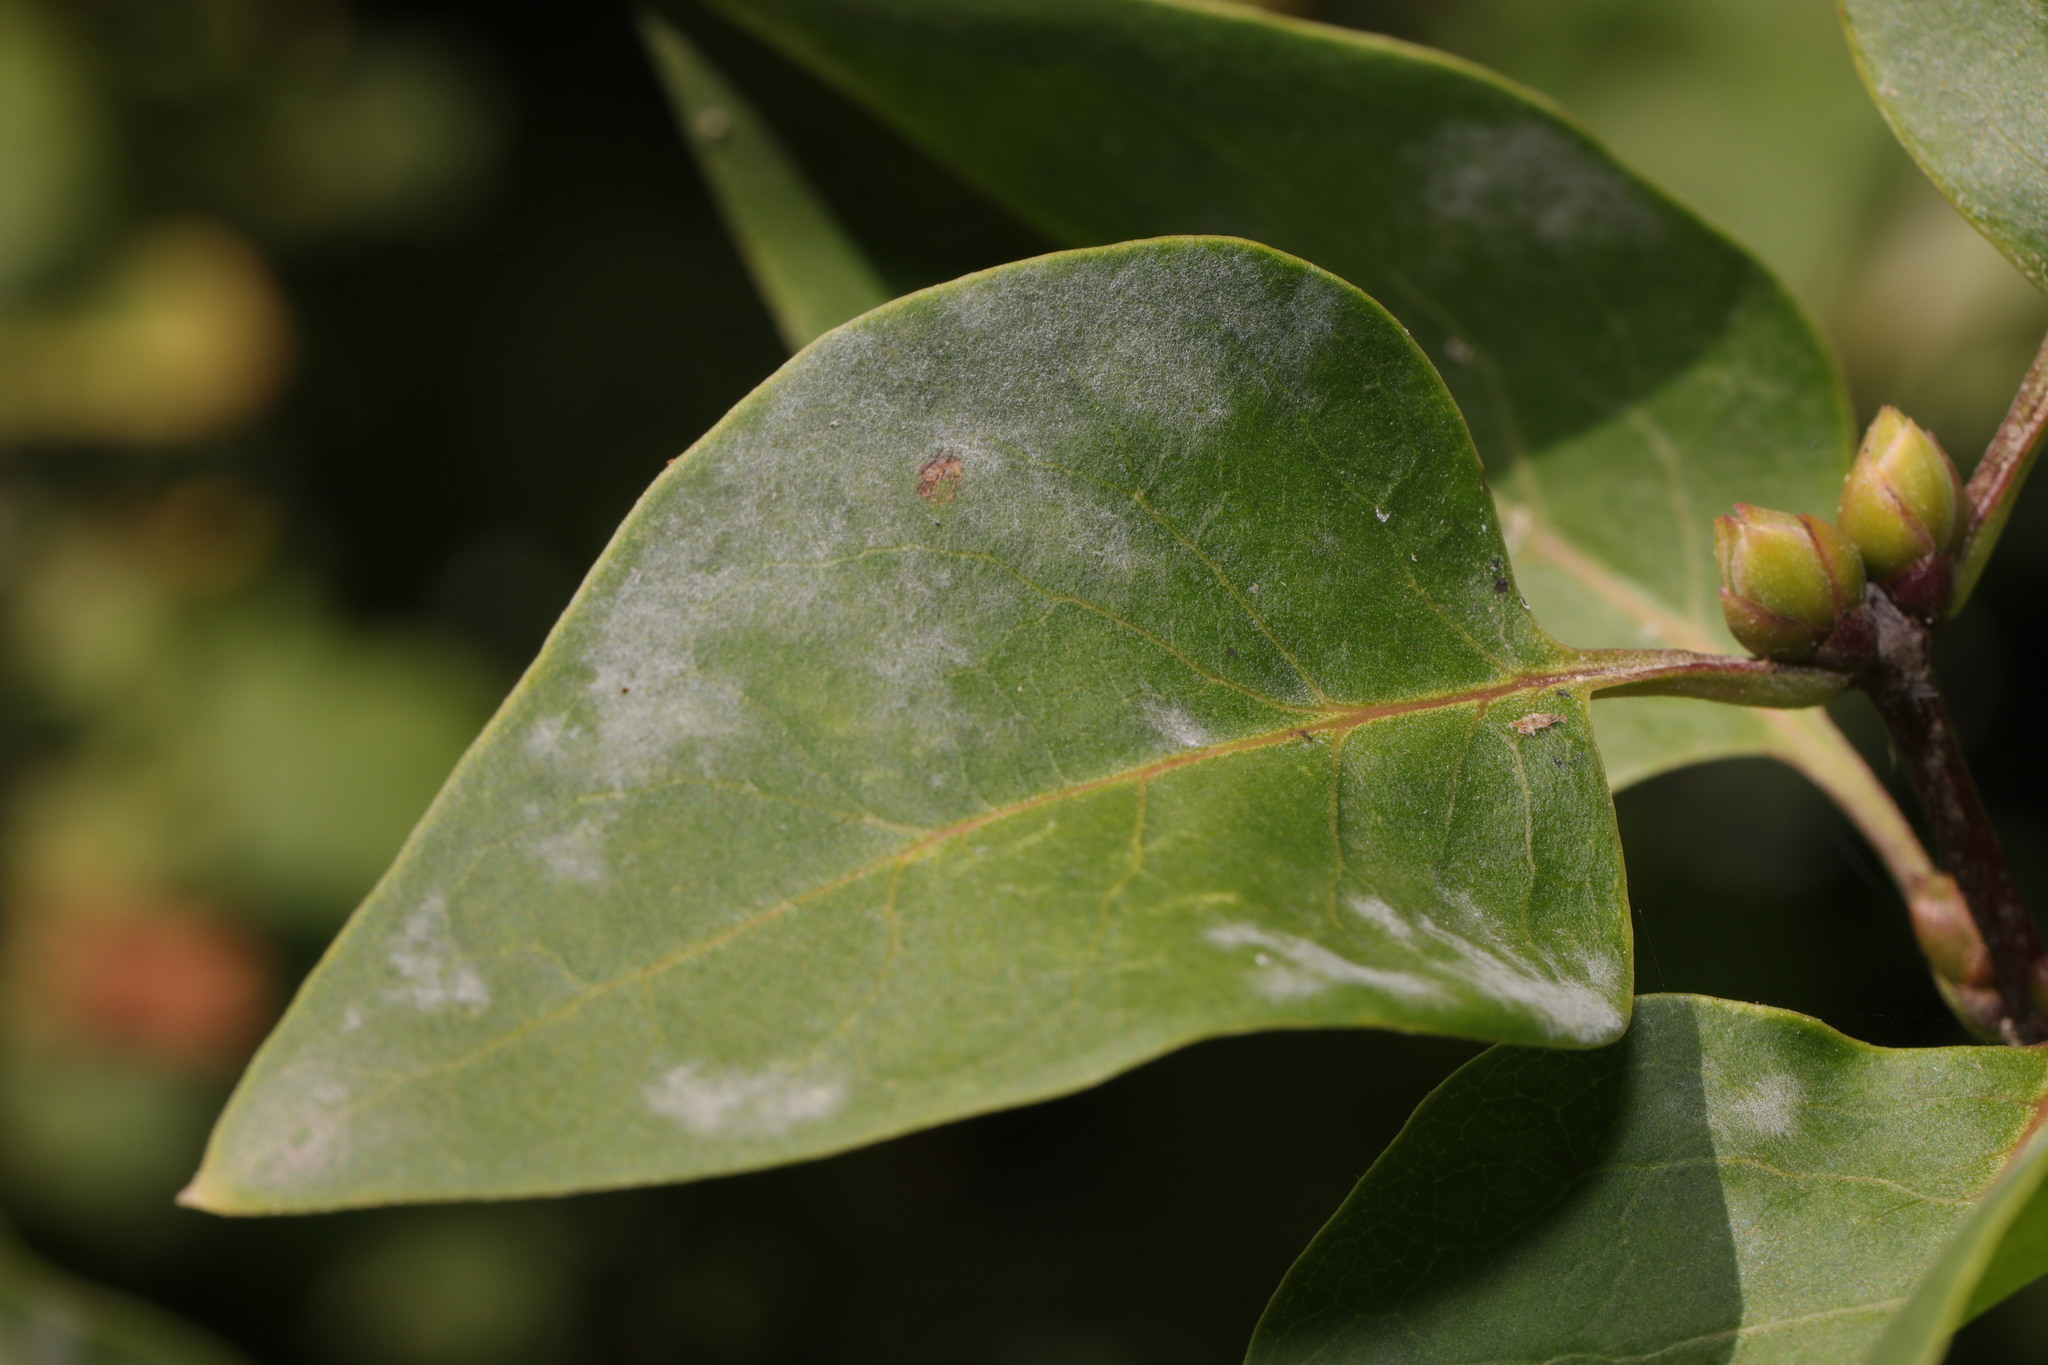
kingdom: Fungi
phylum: Ascomycota
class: Leotiomycetes
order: Helotiales
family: Erysiphaceae
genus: Erysiphe
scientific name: Erysiphe syringae
